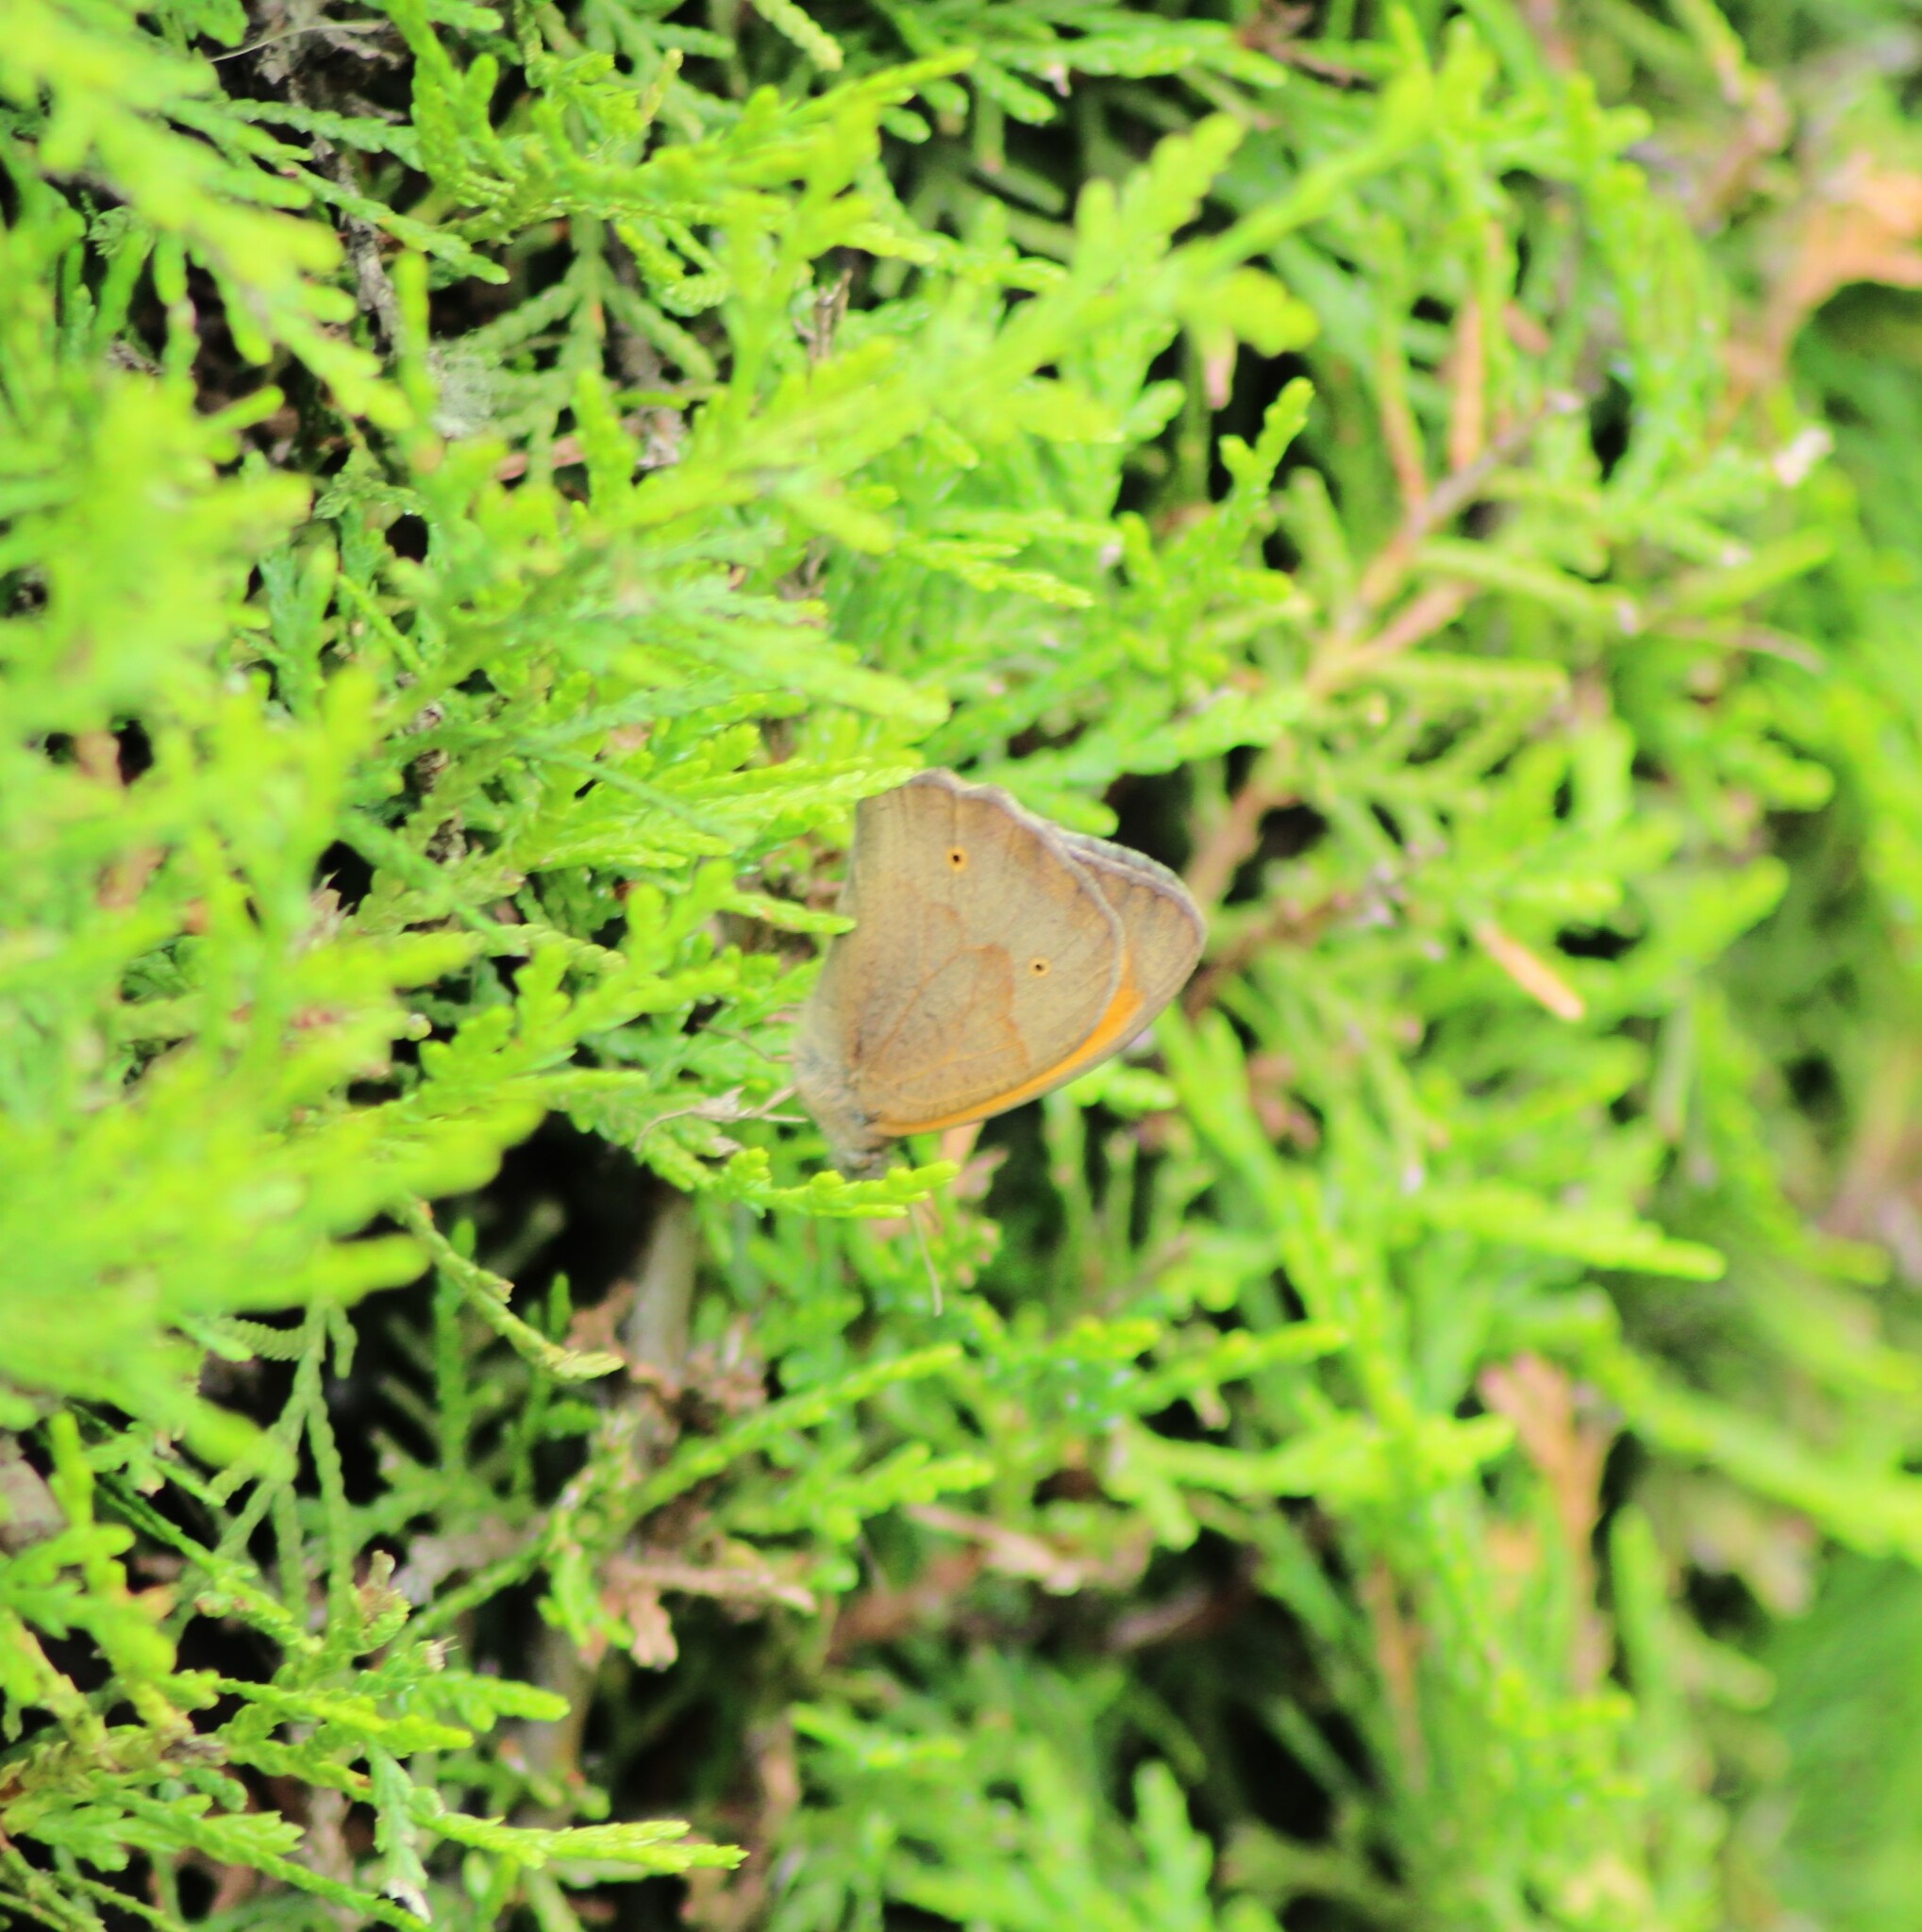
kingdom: Animalia
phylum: Arthropoda
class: Insecta
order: Lepidoptera
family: Nymphalidae
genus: Maniola
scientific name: Maniola jurtina
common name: Meadow brown
